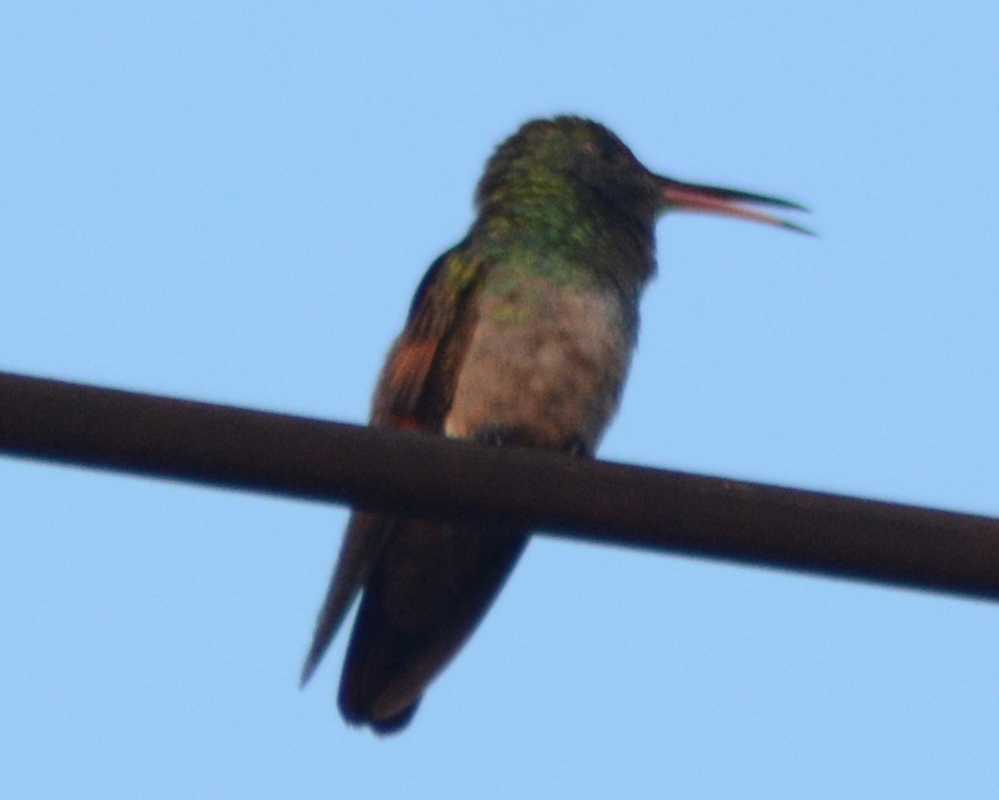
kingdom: Animalia
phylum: Chordata
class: Aves
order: Apodiformes
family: Trochilidae
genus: Saucerottia
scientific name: Saucerottia beryllina
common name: Berylline hummingbird
